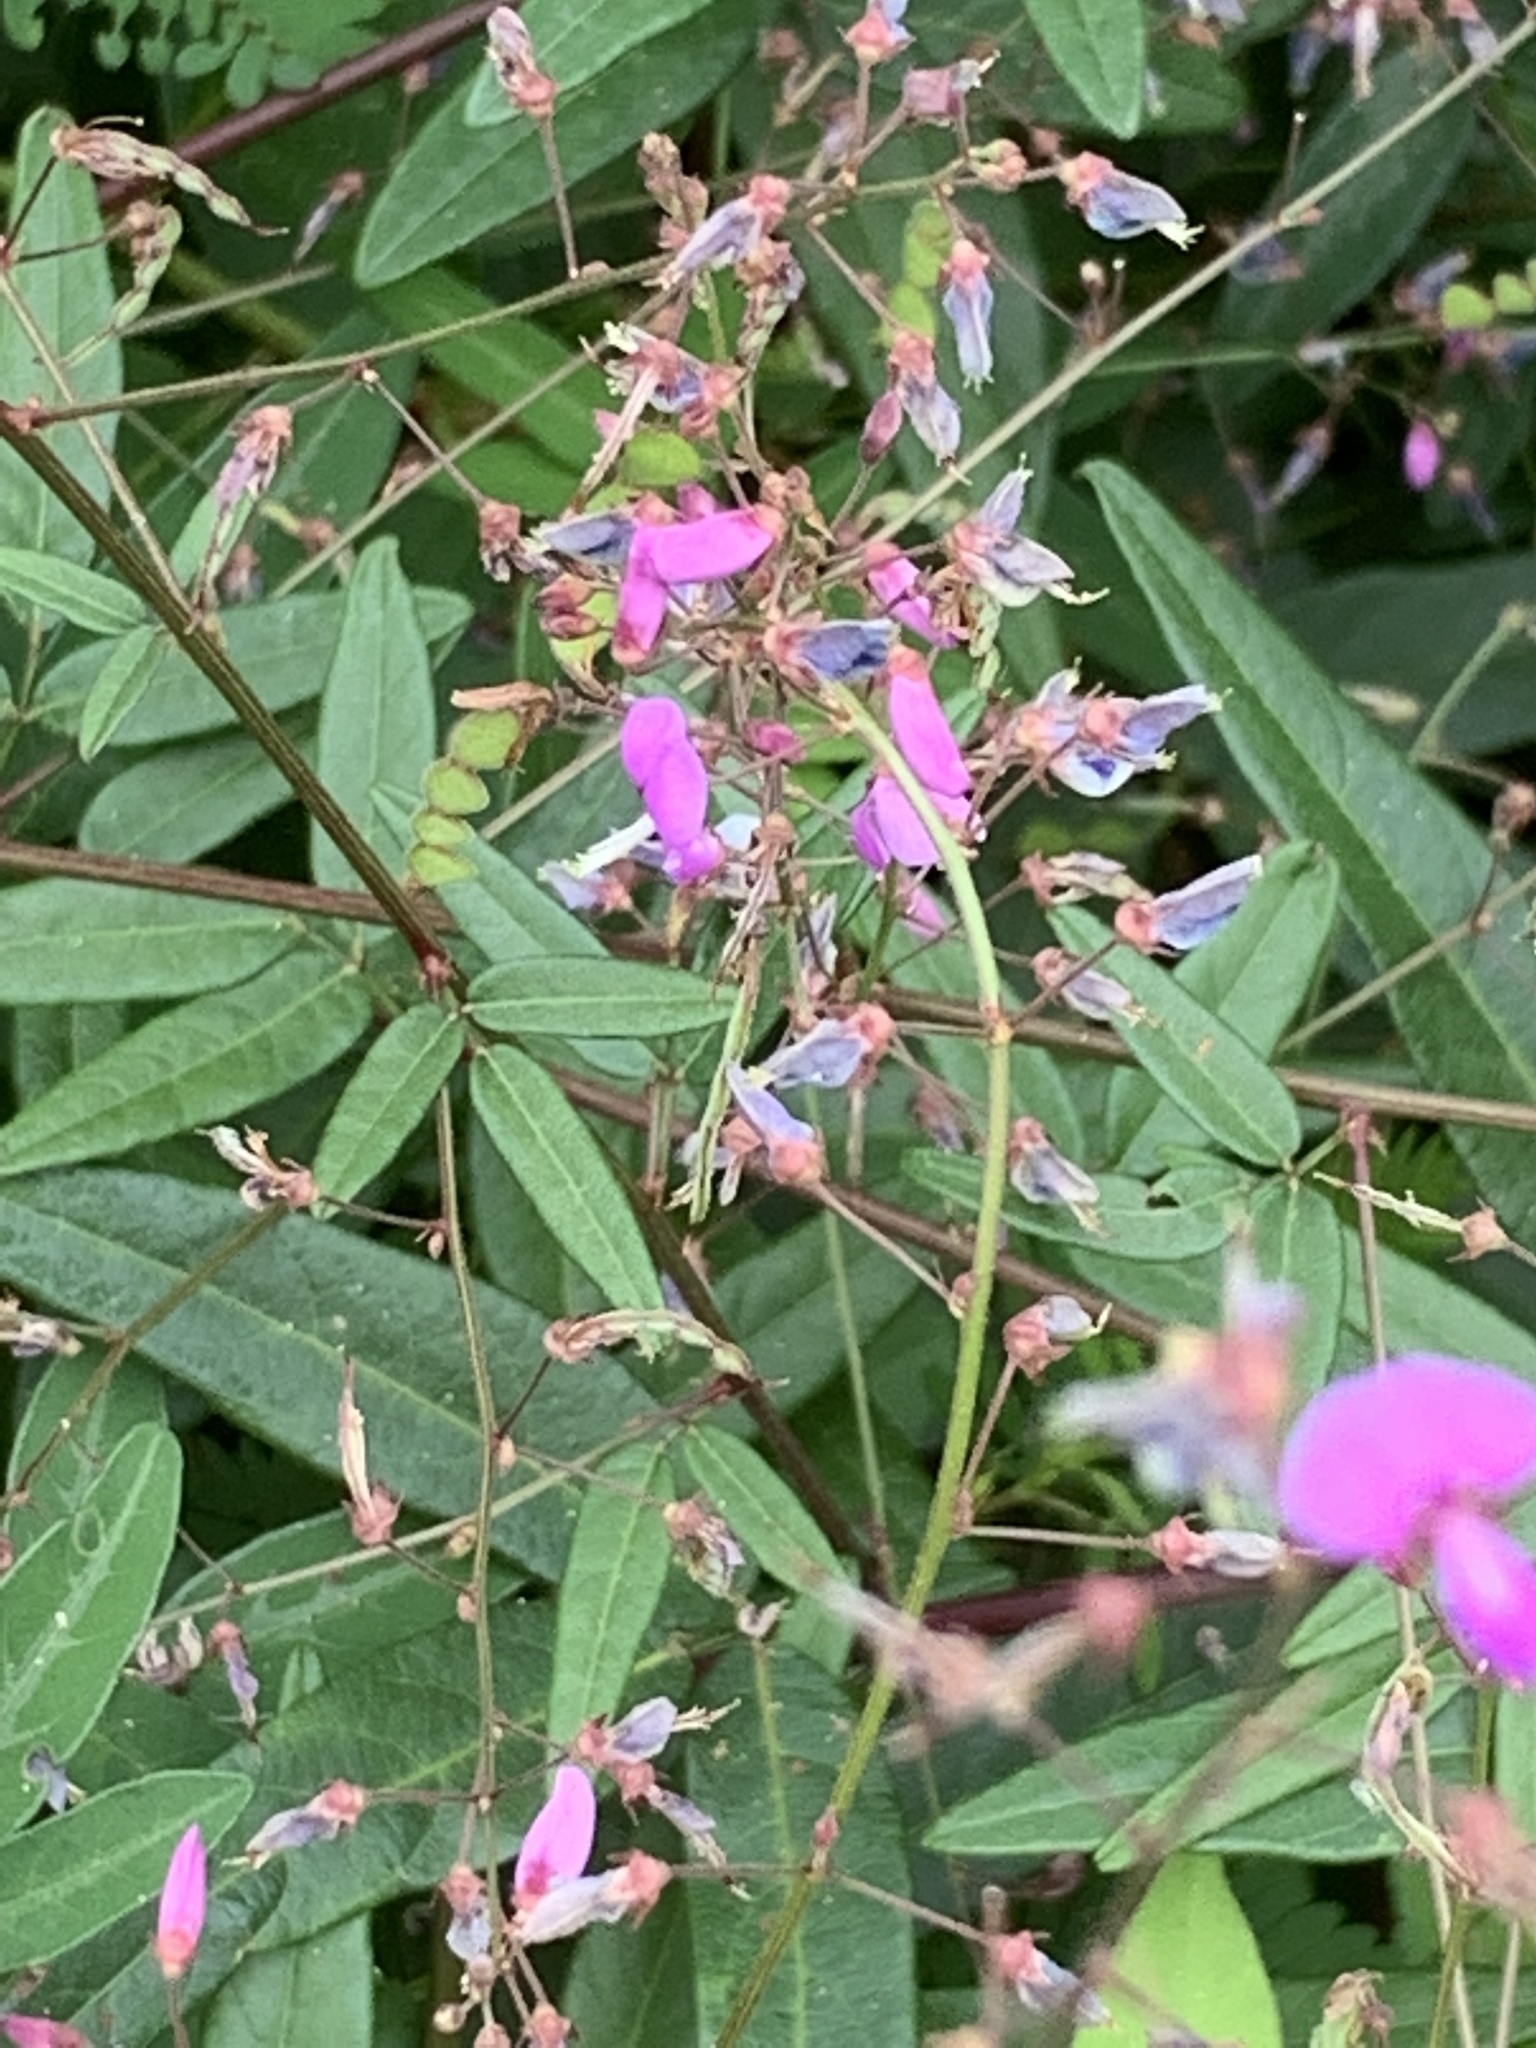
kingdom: Plantae
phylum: Tracheophyta
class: Magnoliopsida
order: Fabales
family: Fabaceae
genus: Desmodium
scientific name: Desmodium paniculatum
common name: Panicled tick-clover
